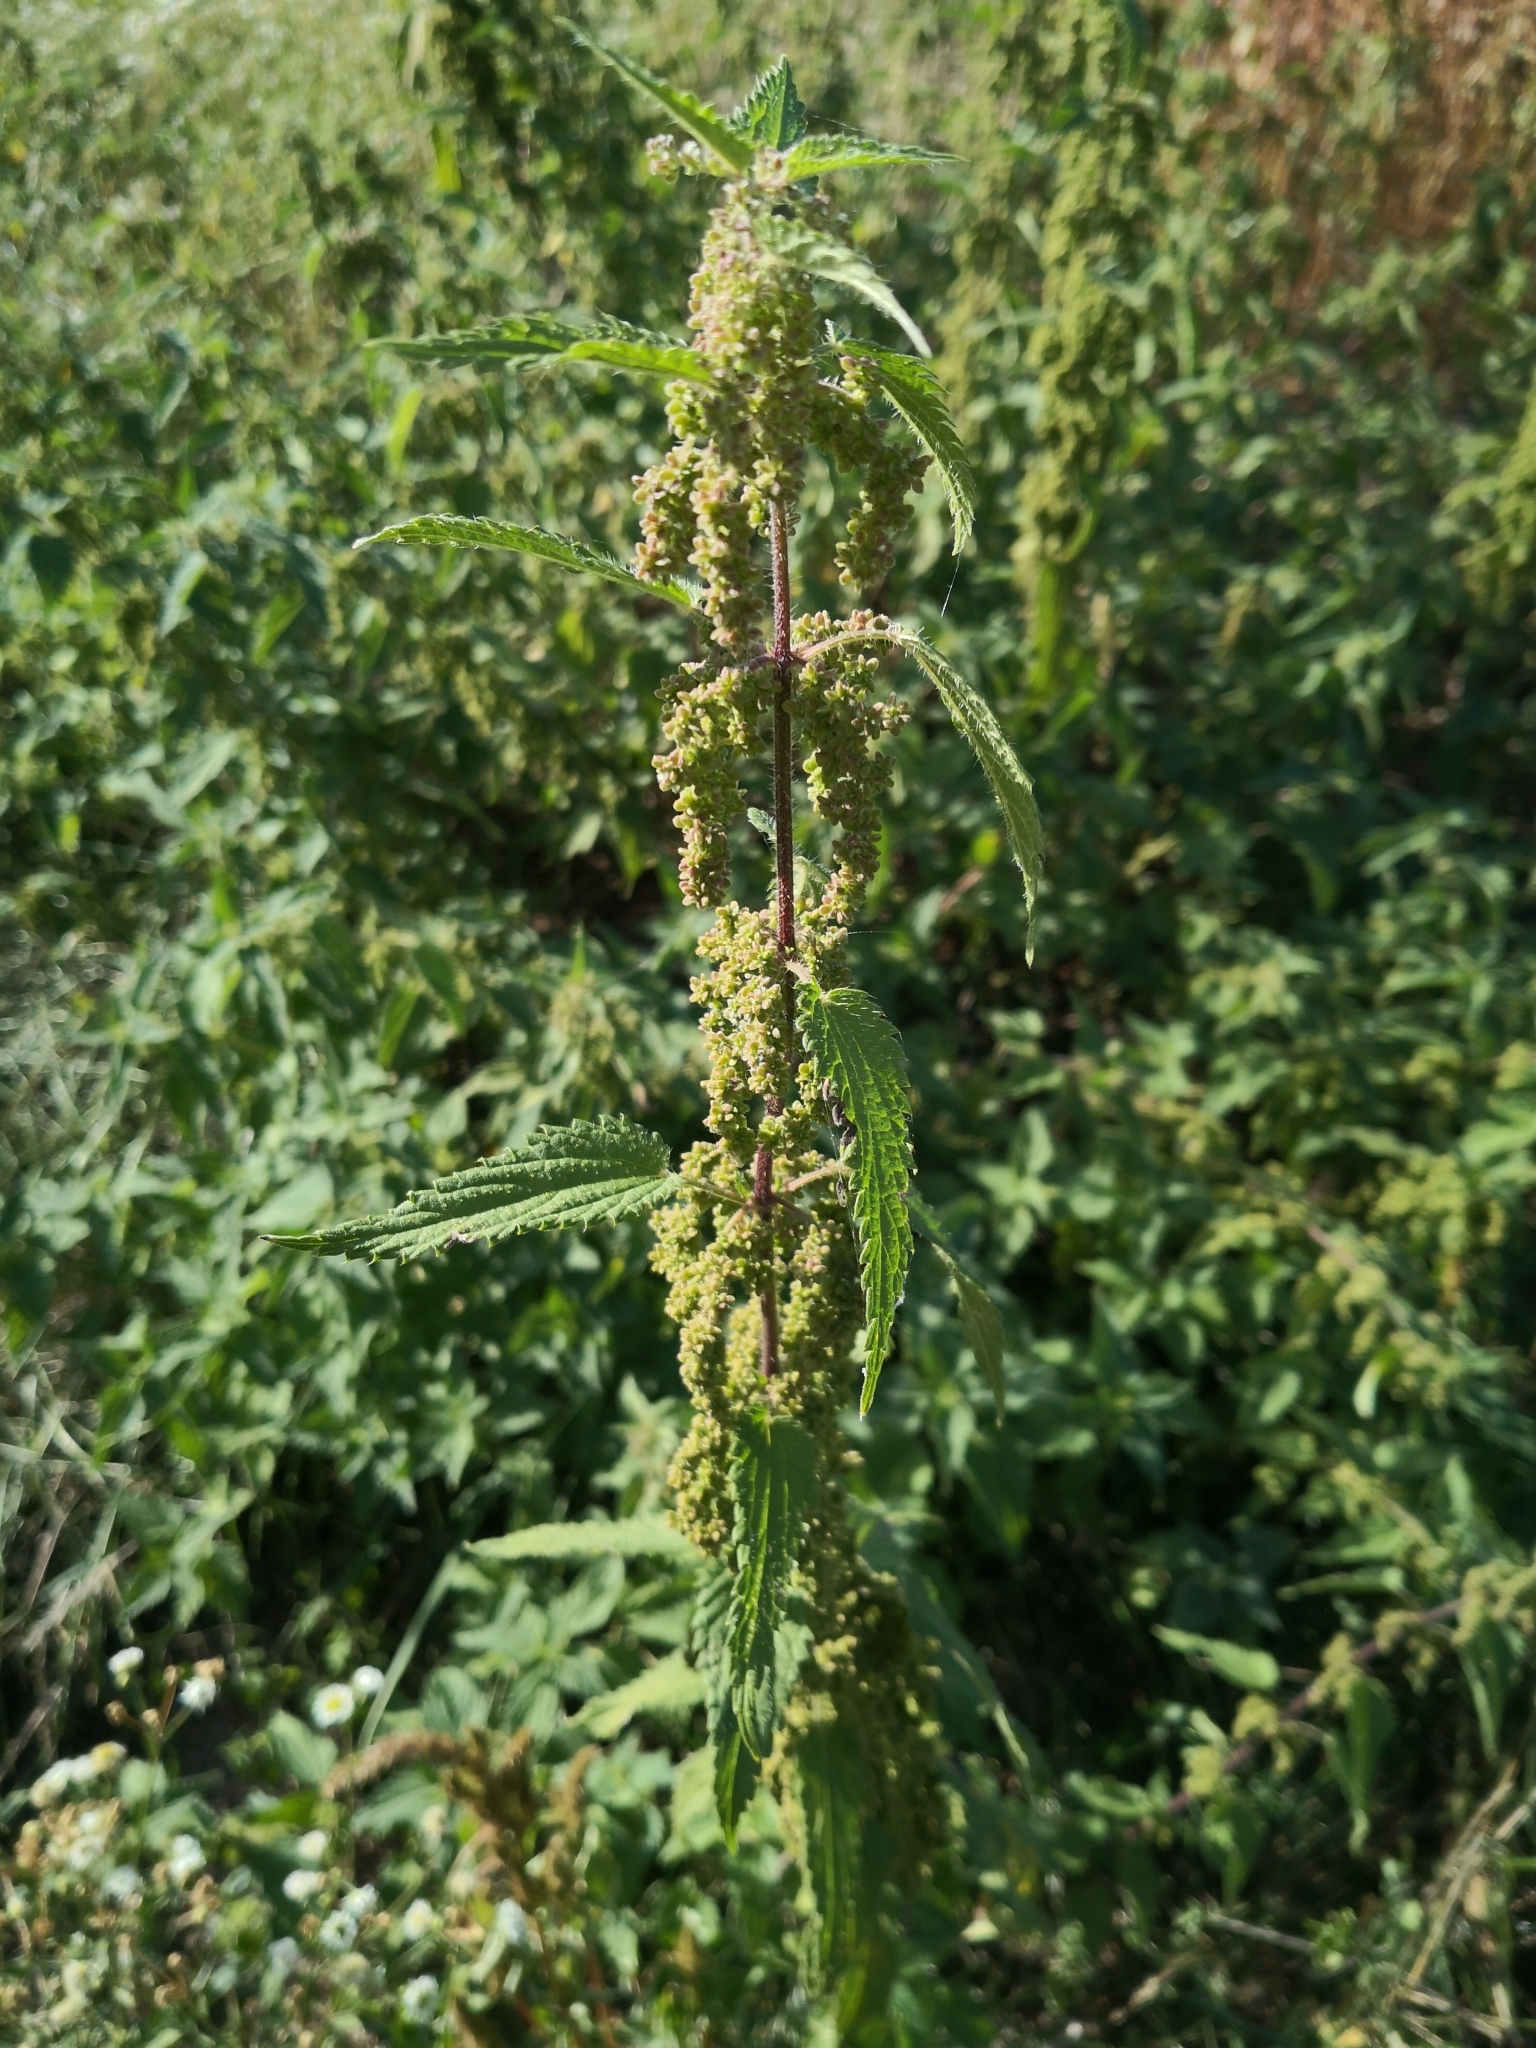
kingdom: Plantae
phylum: Tracheophyta
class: Magnoliopsida
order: Rosales
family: Urticaceae
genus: Urtica
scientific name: Urtica dioica
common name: Common nettle
